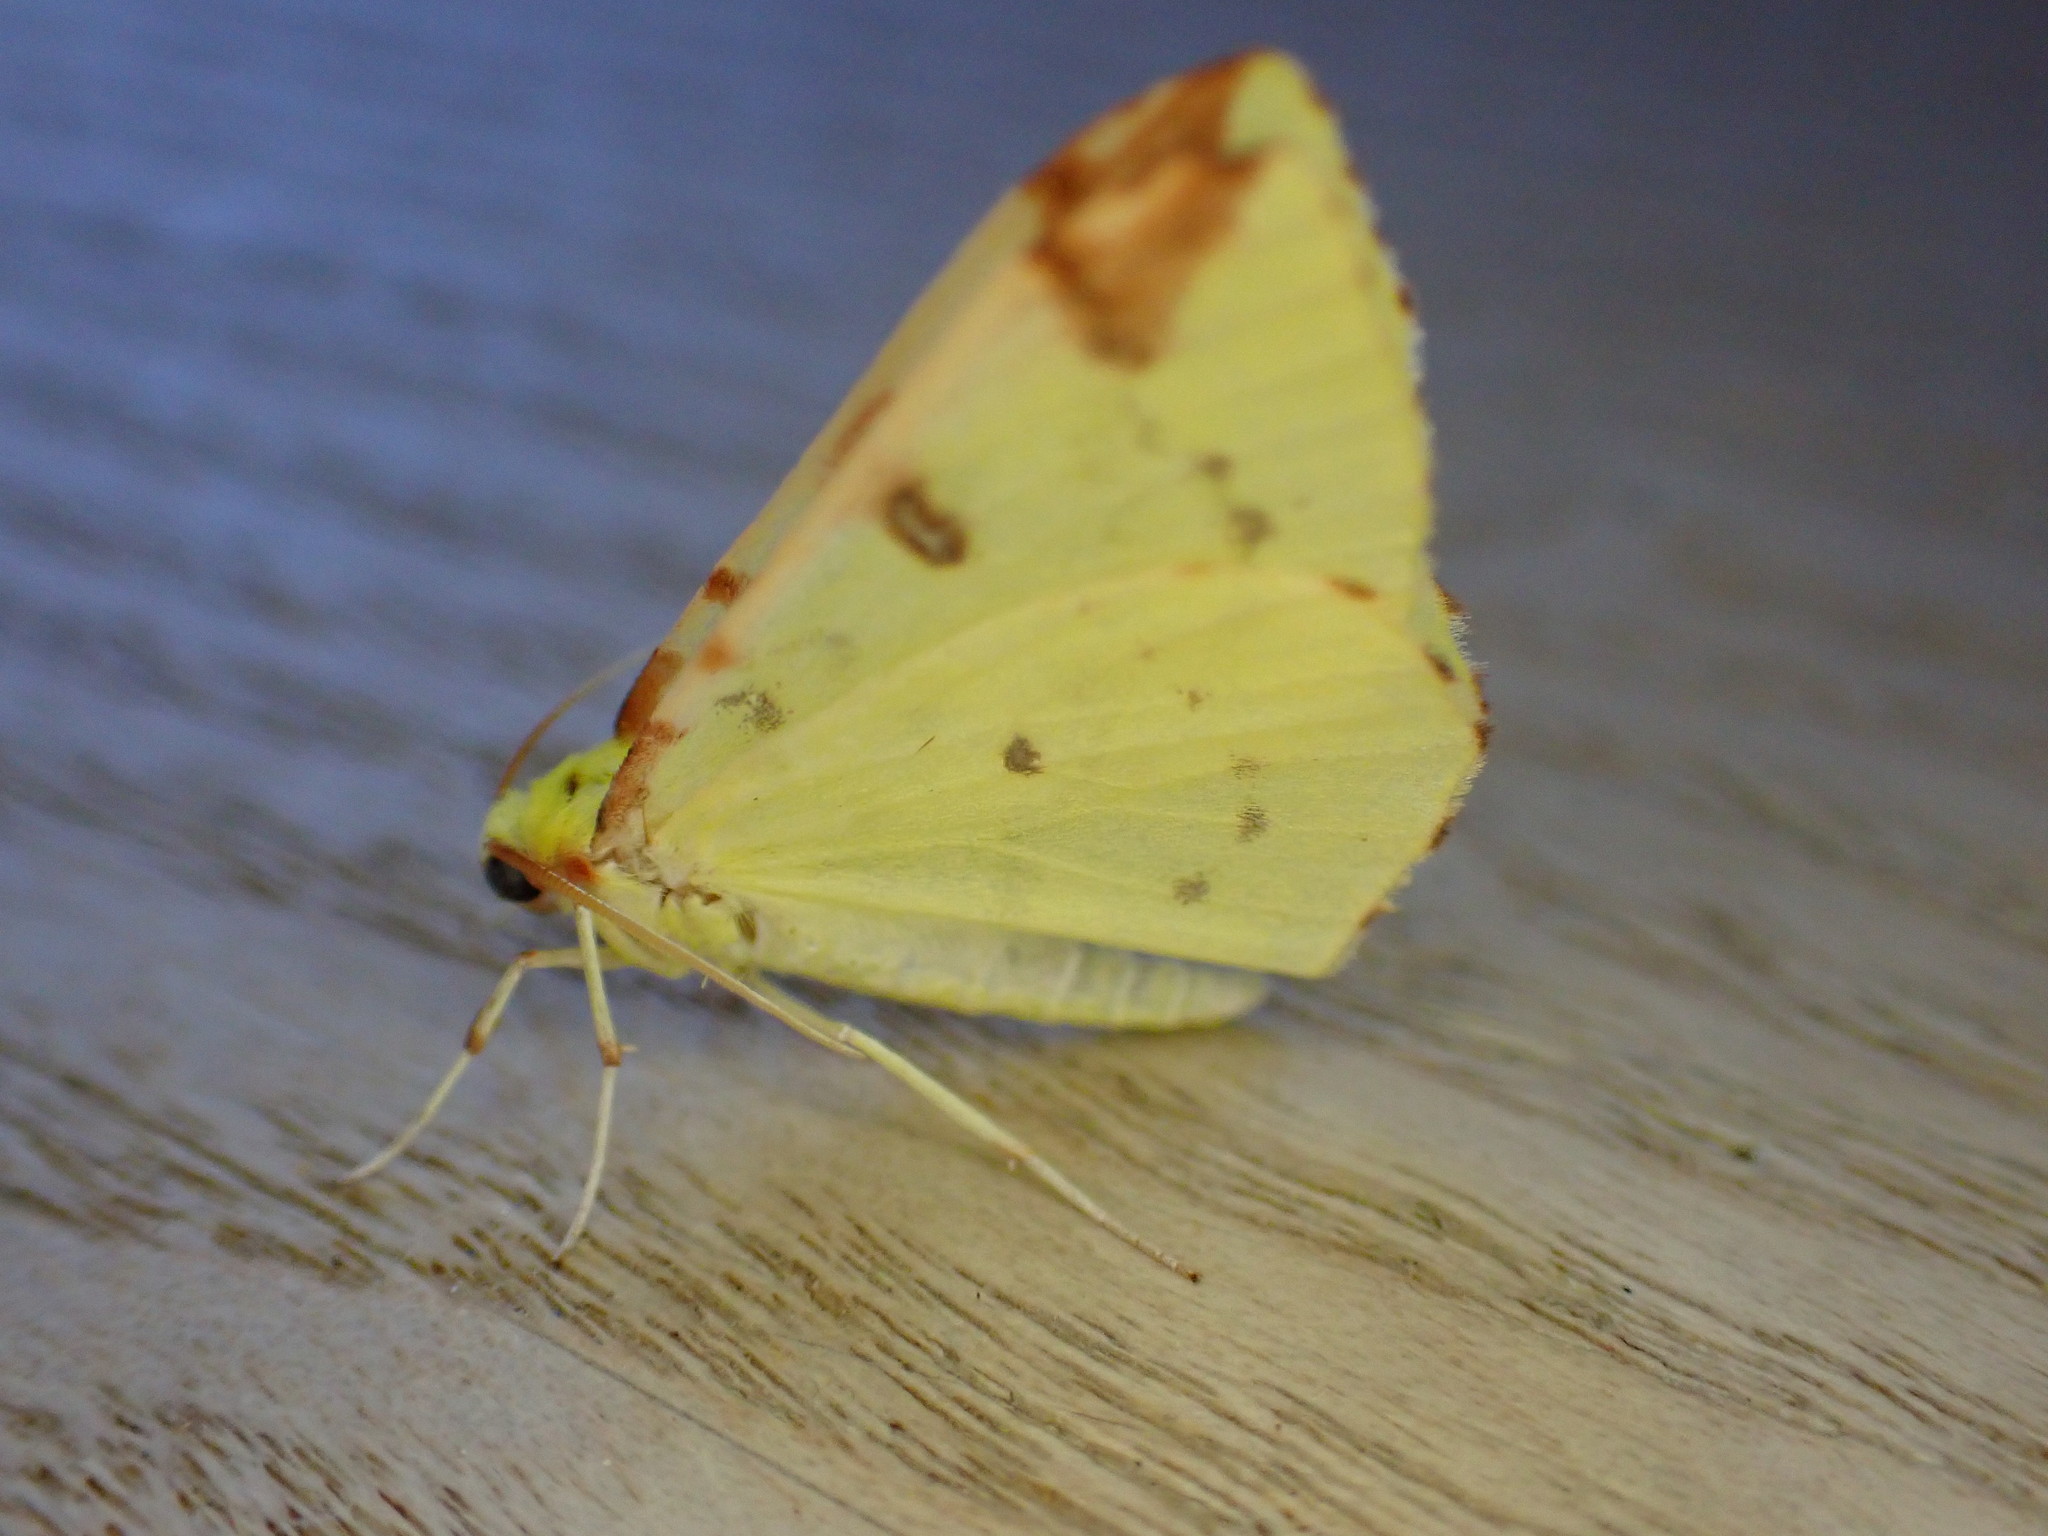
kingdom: Animalia
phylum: Arthropoda
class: Insecta
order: Lepidoptera
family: Geometridae
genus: Opisthograptis
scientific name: Opisthograptis luteolata
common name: Brimstone moth
